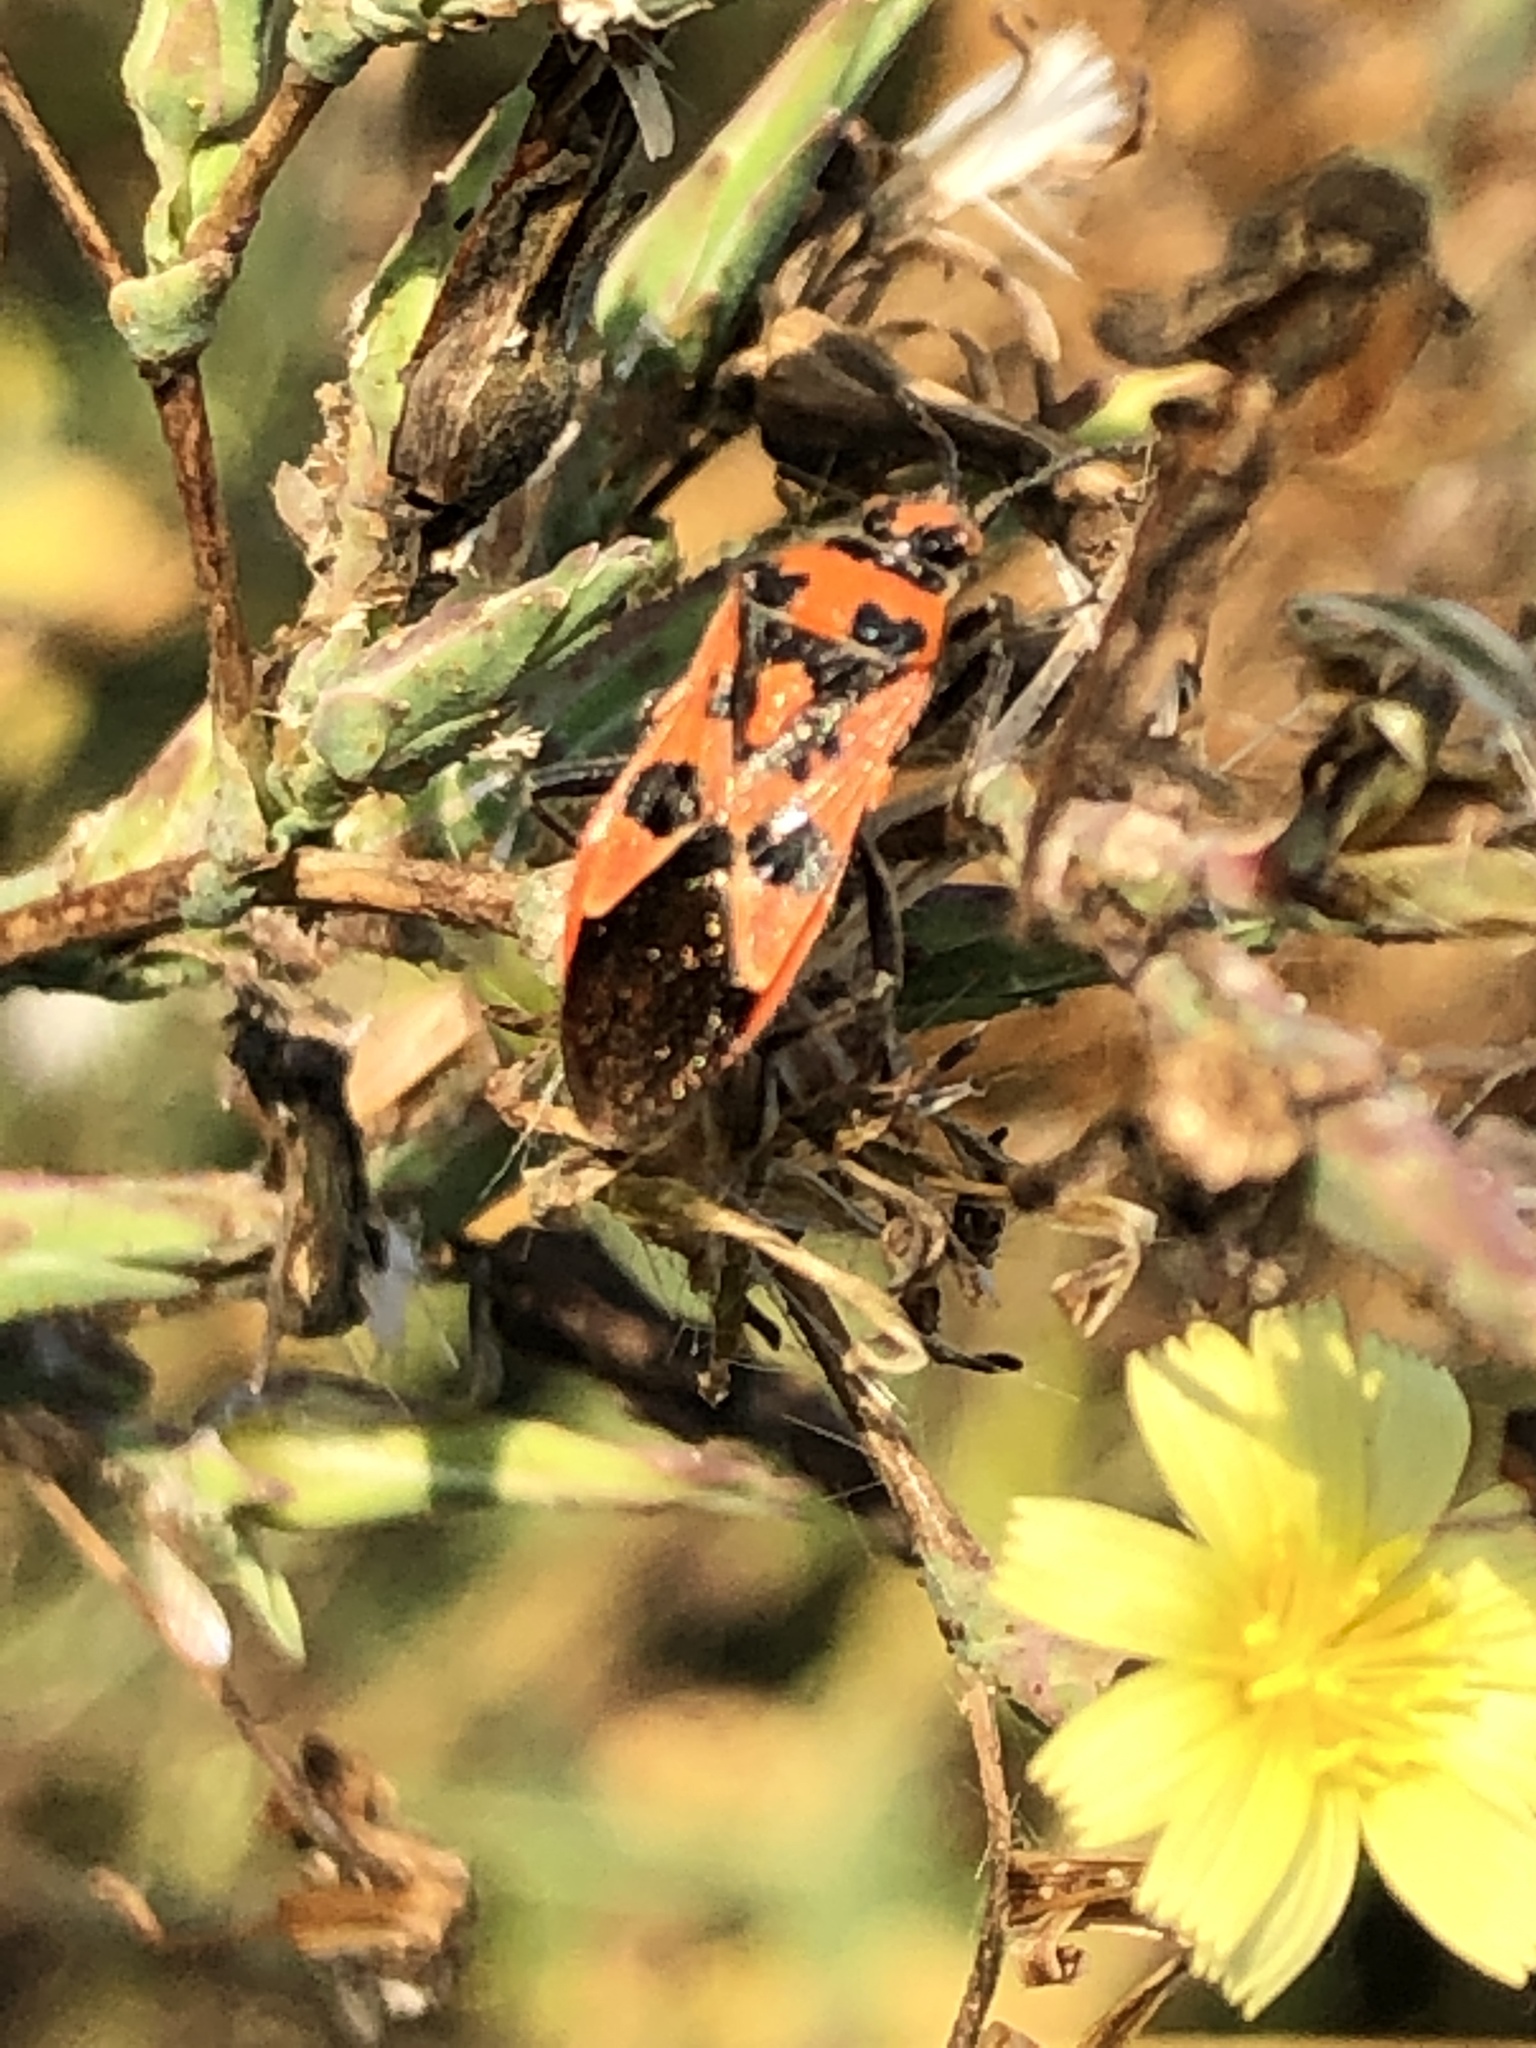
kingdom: Animalia
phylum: Arthropoda
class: Insecta
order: Hemiptera
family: Rhopalidae
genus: Corizus
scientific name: Corizus hyoscyami
